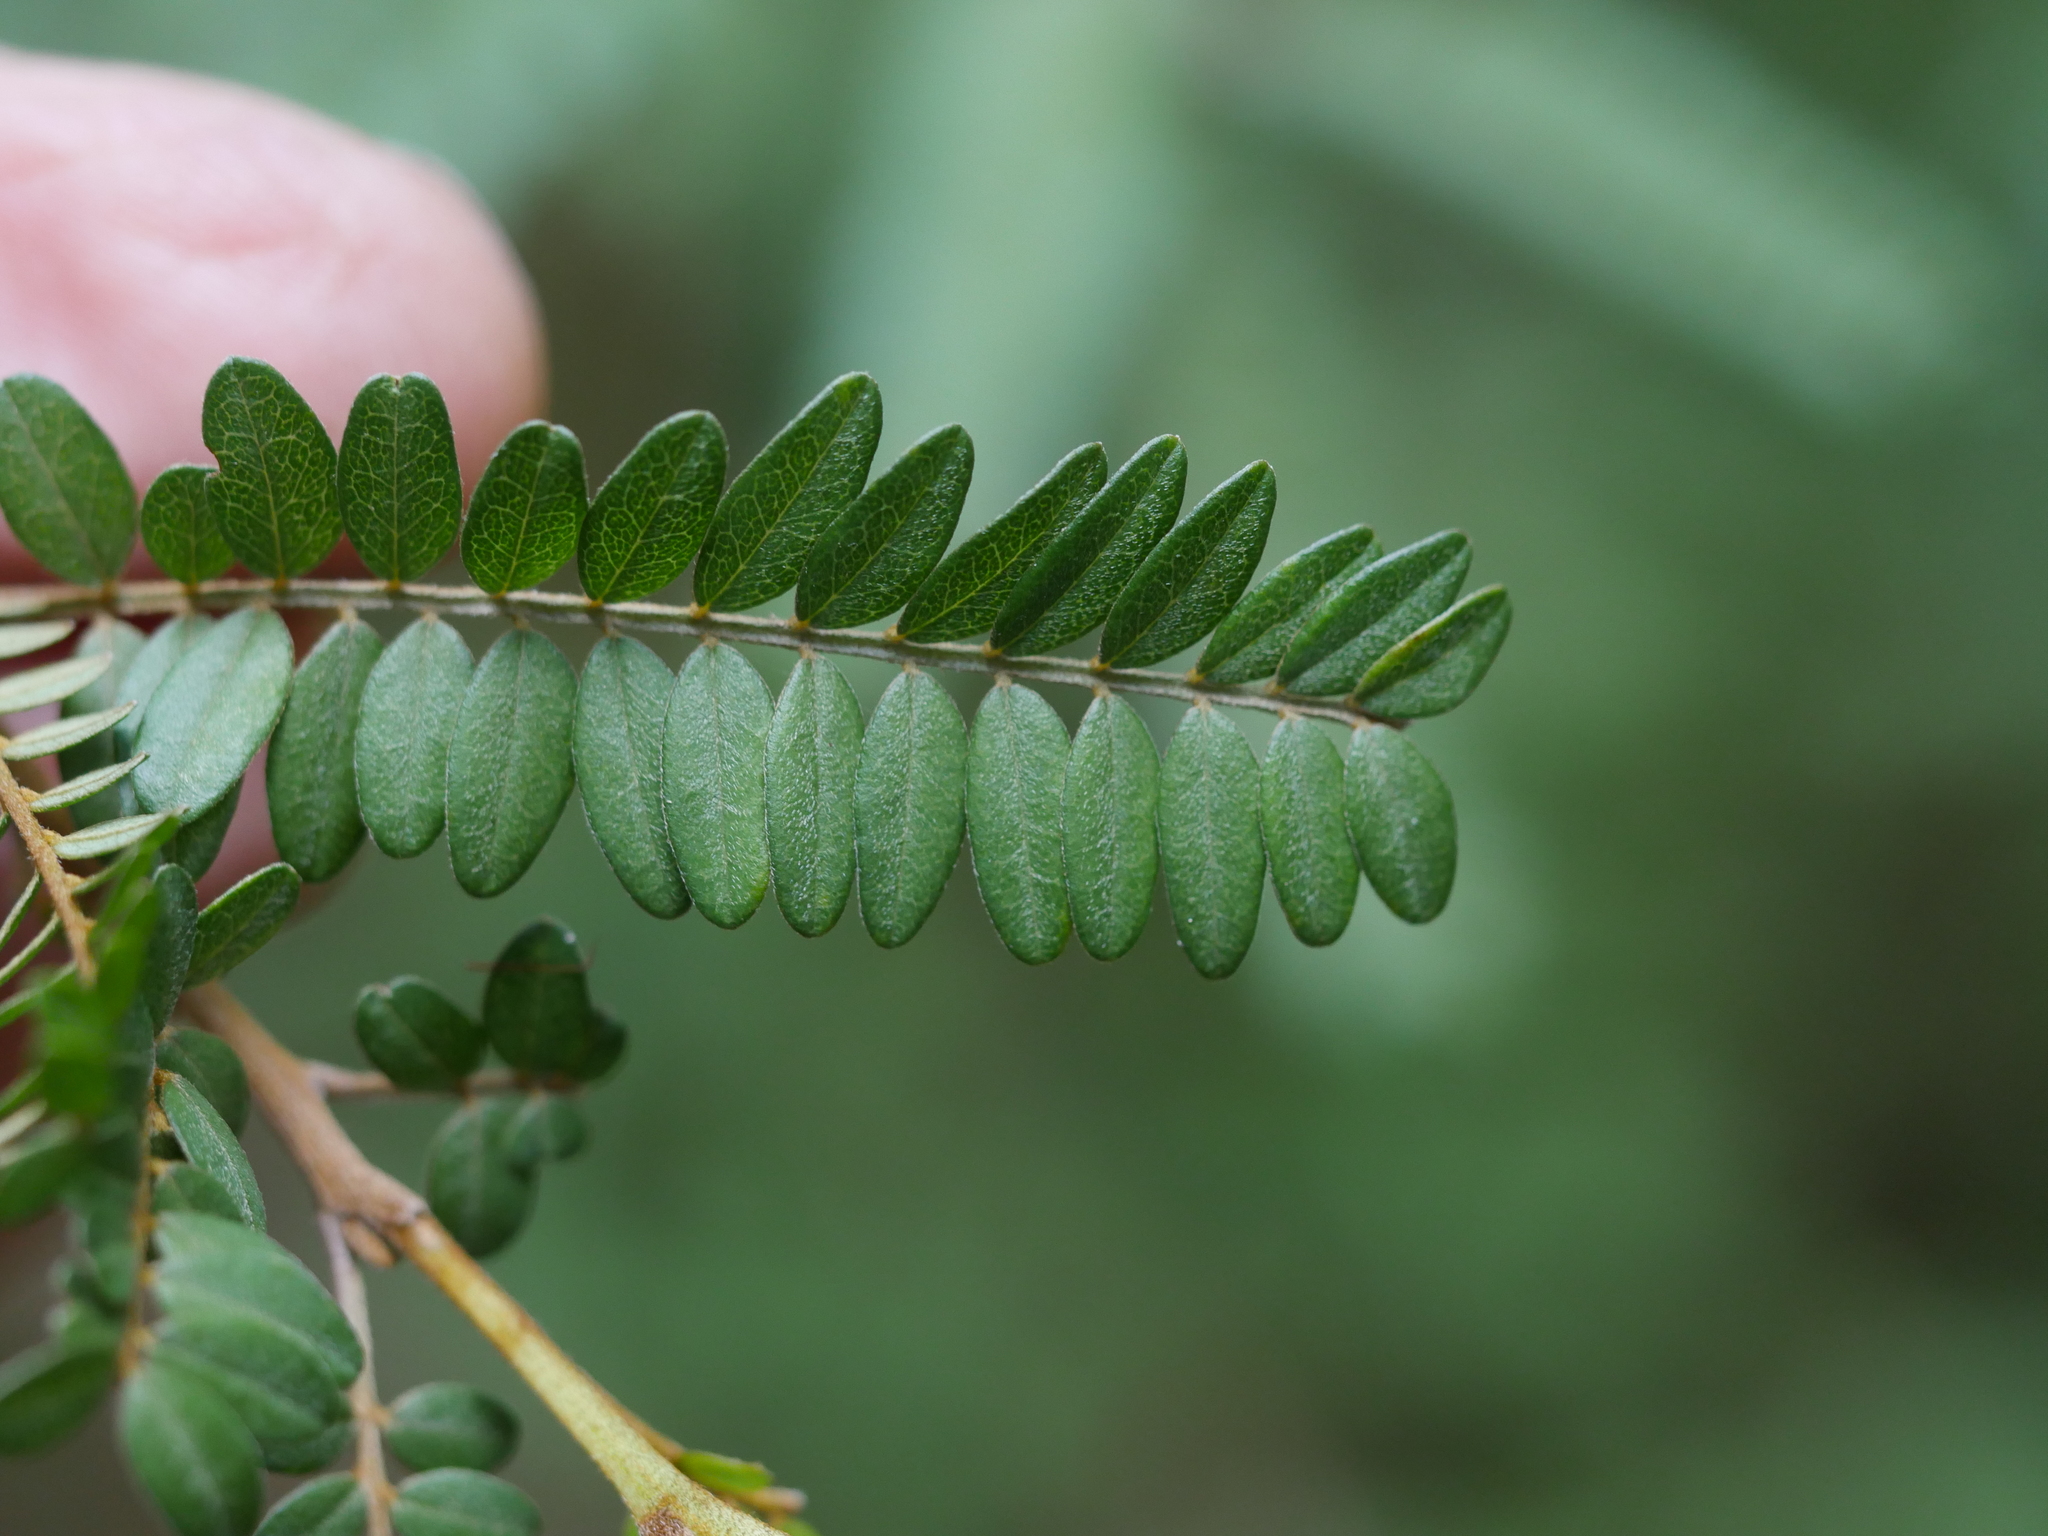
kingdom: Plantae
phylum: Tracheophyta
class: Magnoliopsida
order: Fabales
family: Fabaceae
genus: Sophora
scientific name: Sophora chathamica
